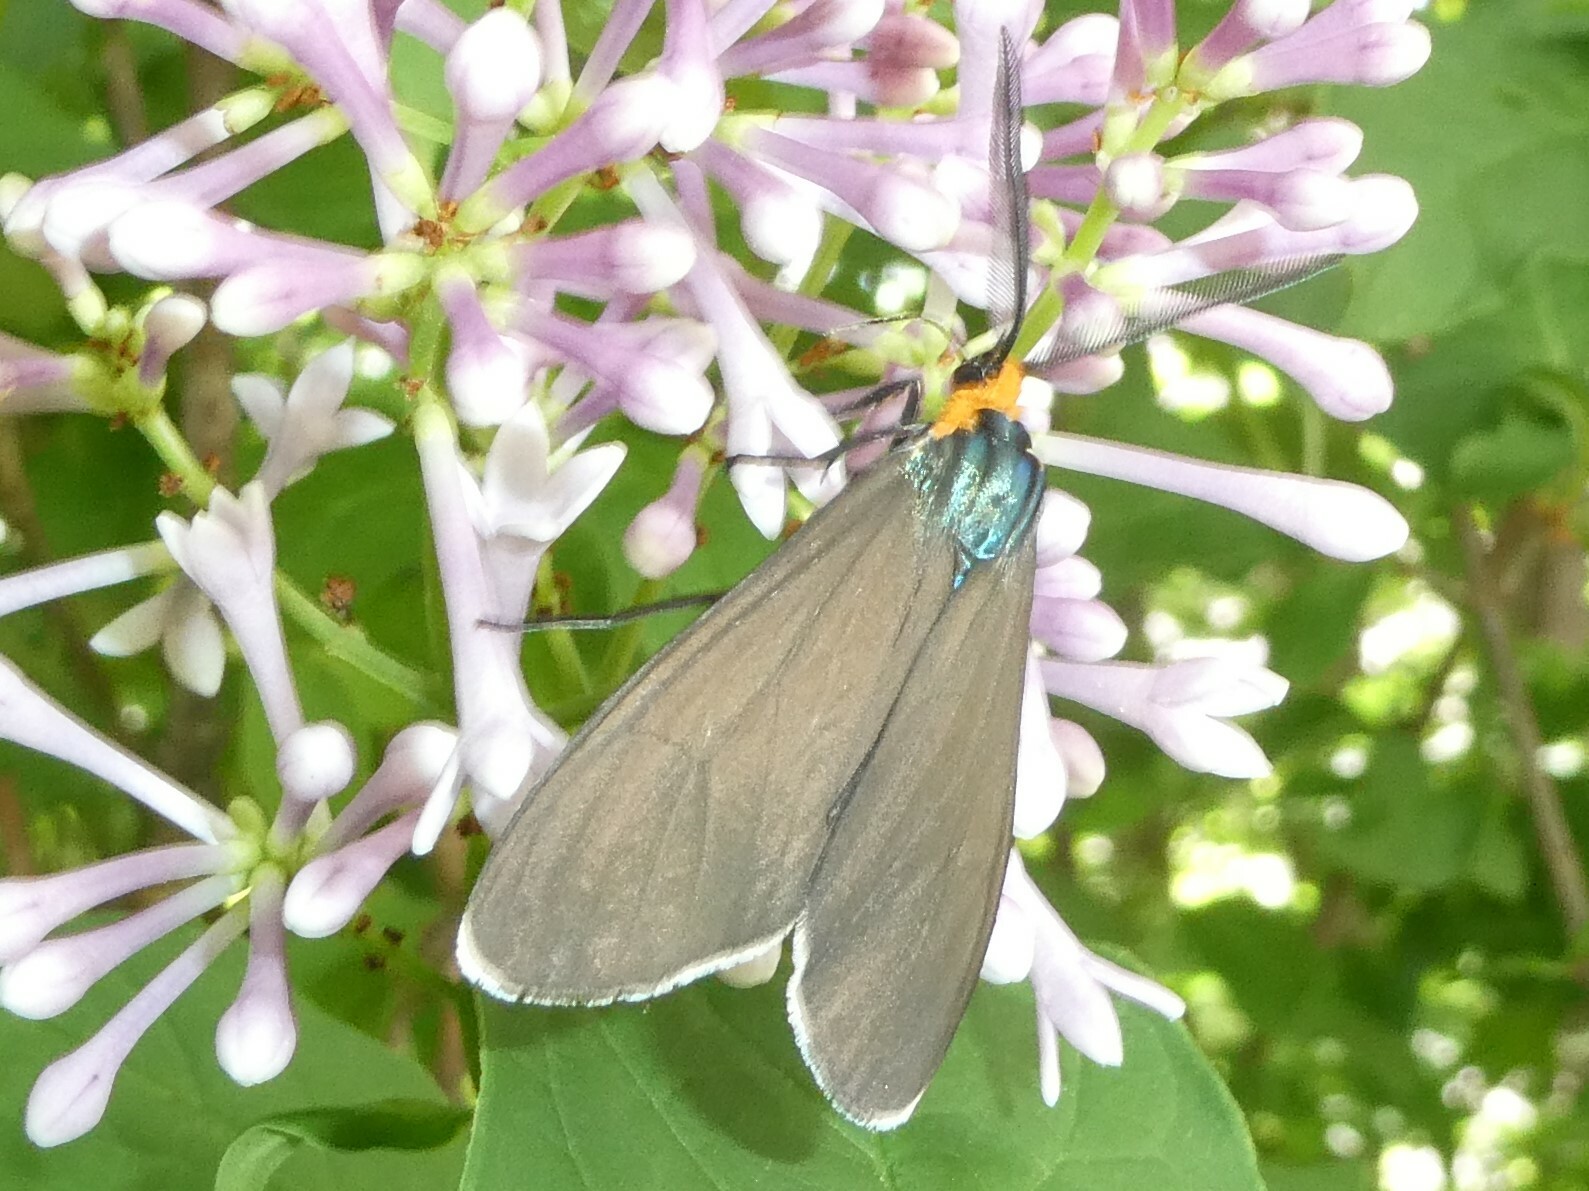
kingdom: Animalia
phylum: Arthropoda
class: Insecta
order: Lepidoptera
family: Erebidae
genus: Ctenucha
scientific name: Ctenucha virginica
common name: Virginia ctenucha moth
